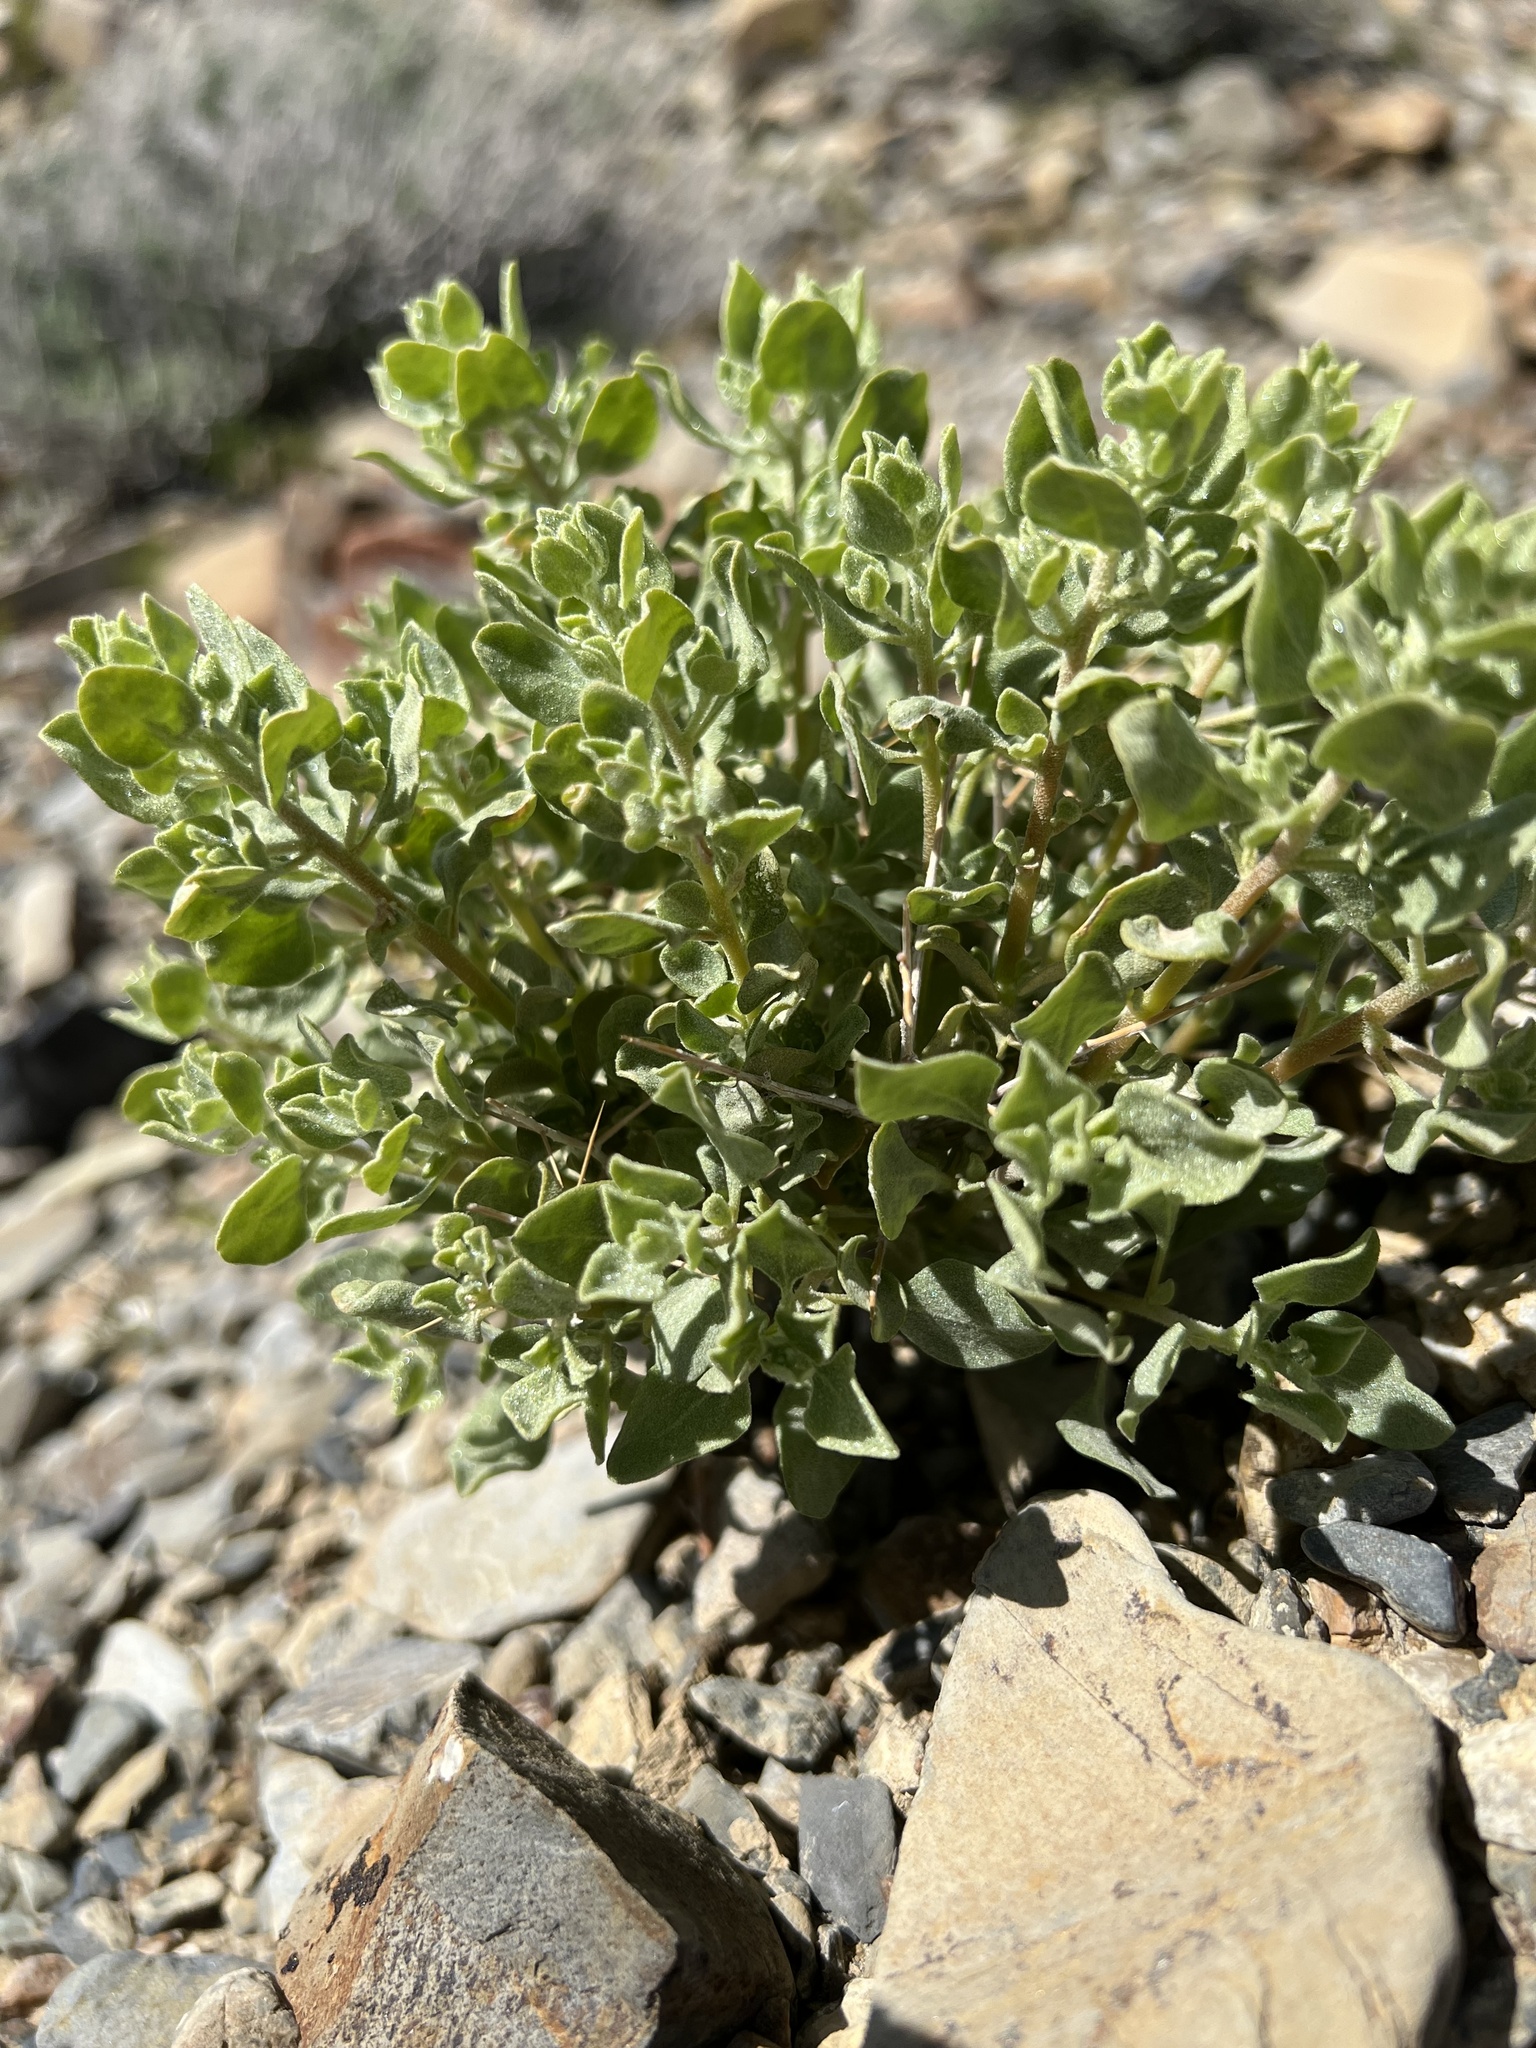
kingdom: Plantae
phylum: Tracheophyta
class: Magnoliopsida
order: Caryophyllales
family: Amaranthaceae
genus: Atriplex
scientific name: Atriplex confertifolia
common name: Shadscale
